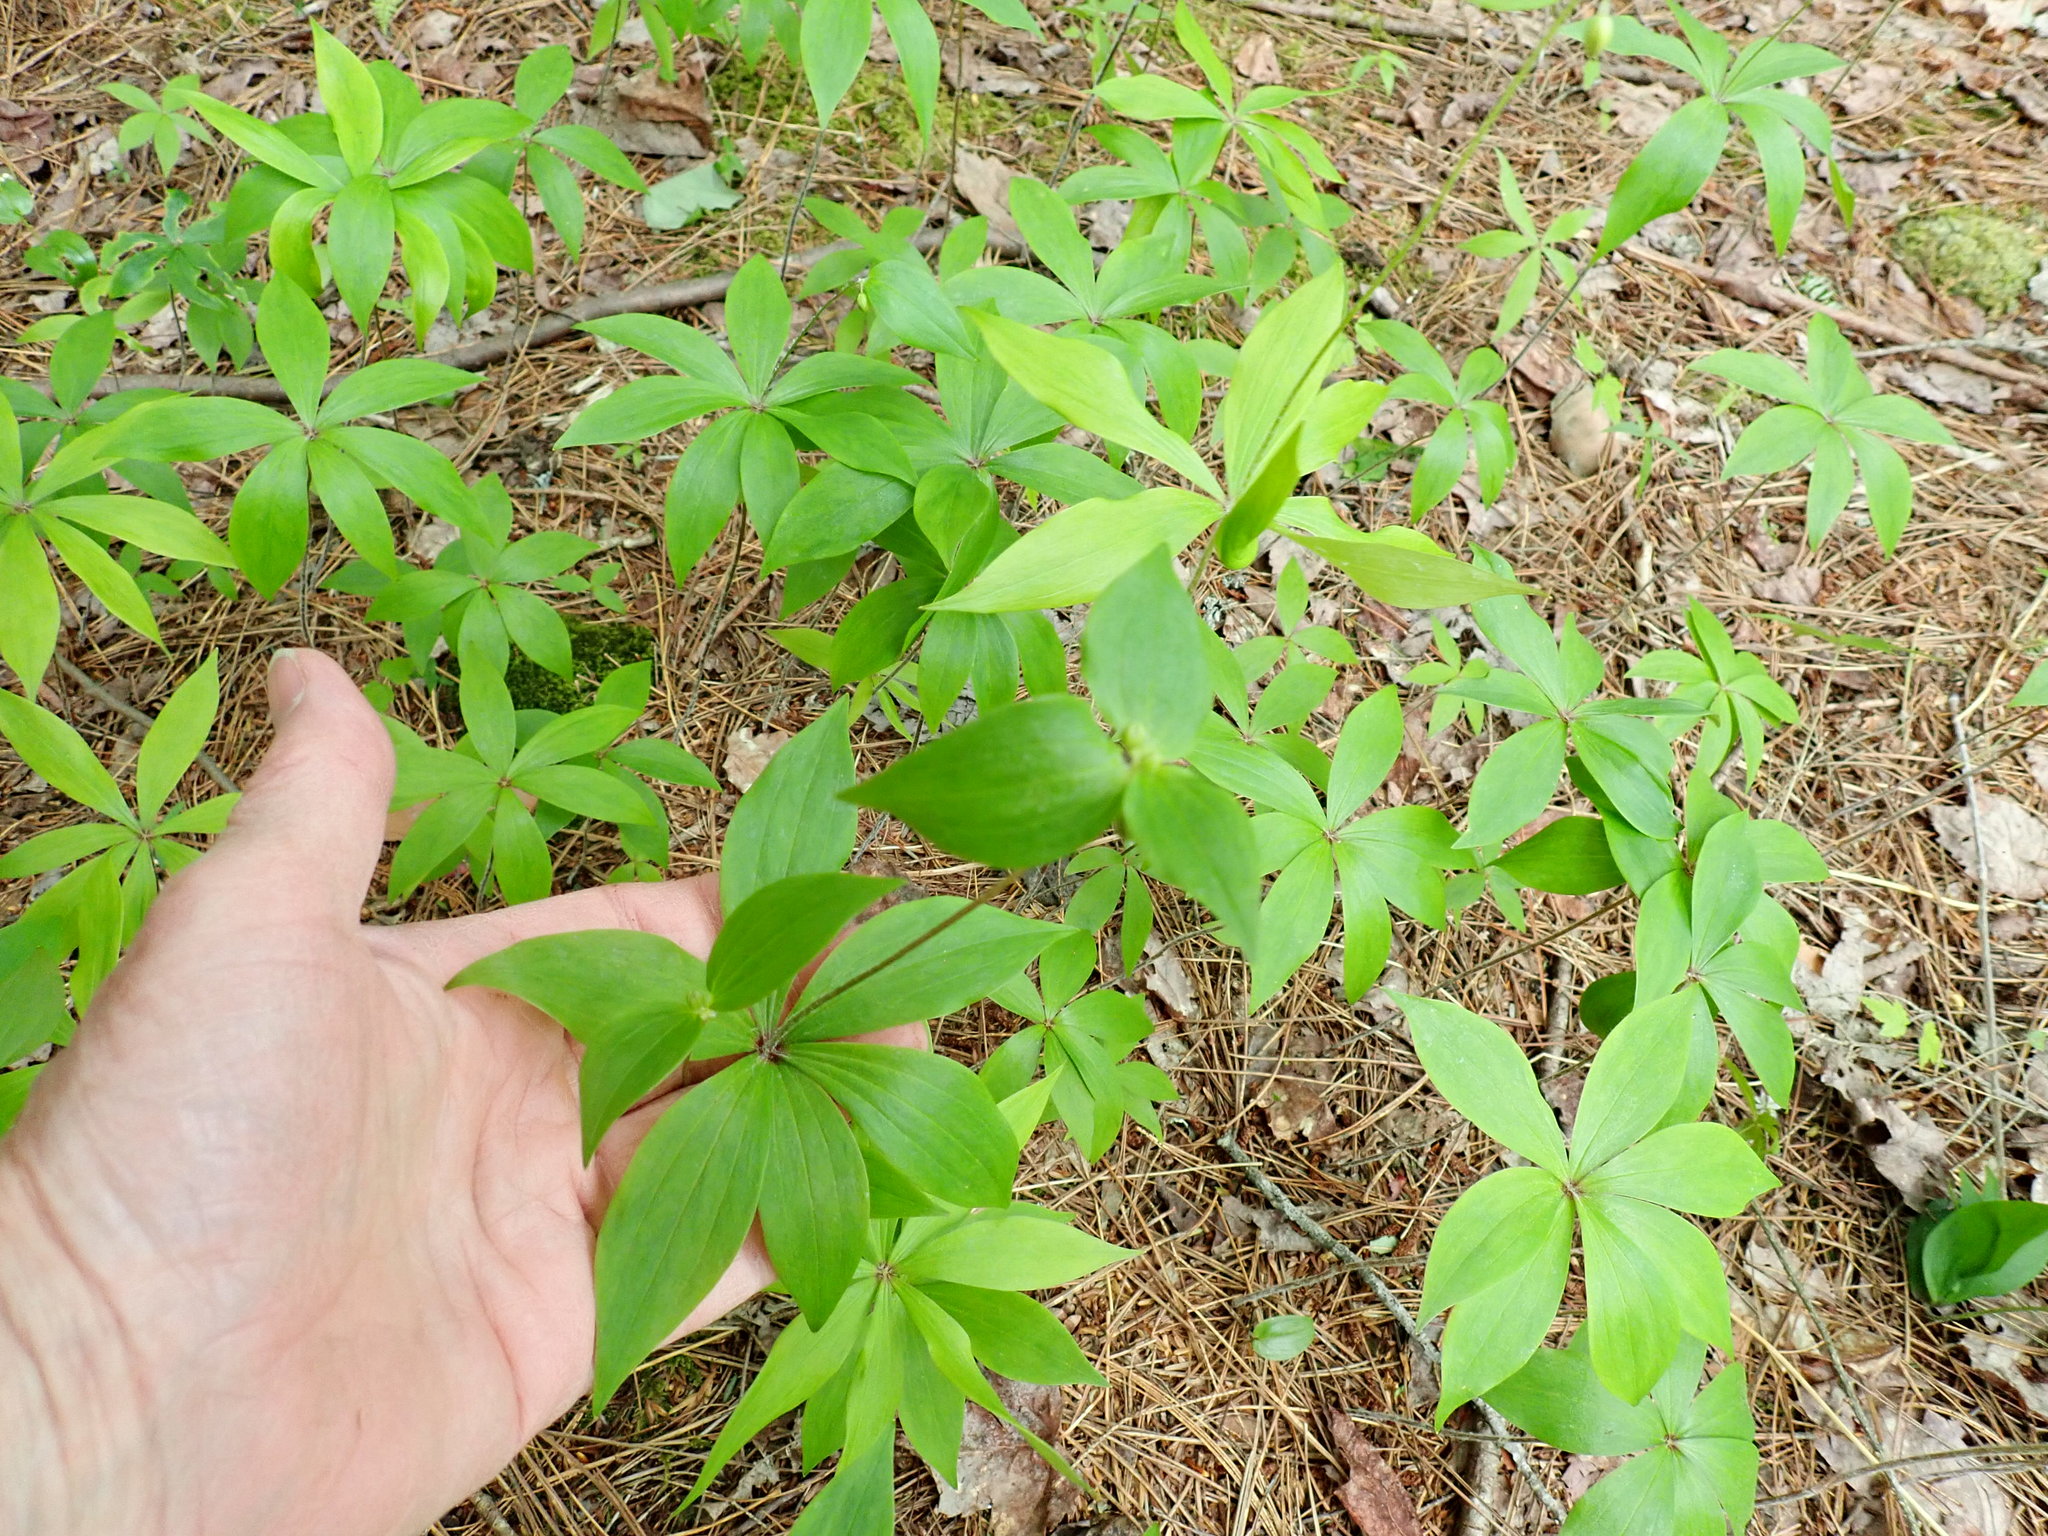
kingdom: Plantae
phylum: Tracheophyta
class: Liliopsida
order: Liliales
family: Liliaceae
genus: Medeola
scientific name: Medeola virginiana
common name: Indian cucumber-root
